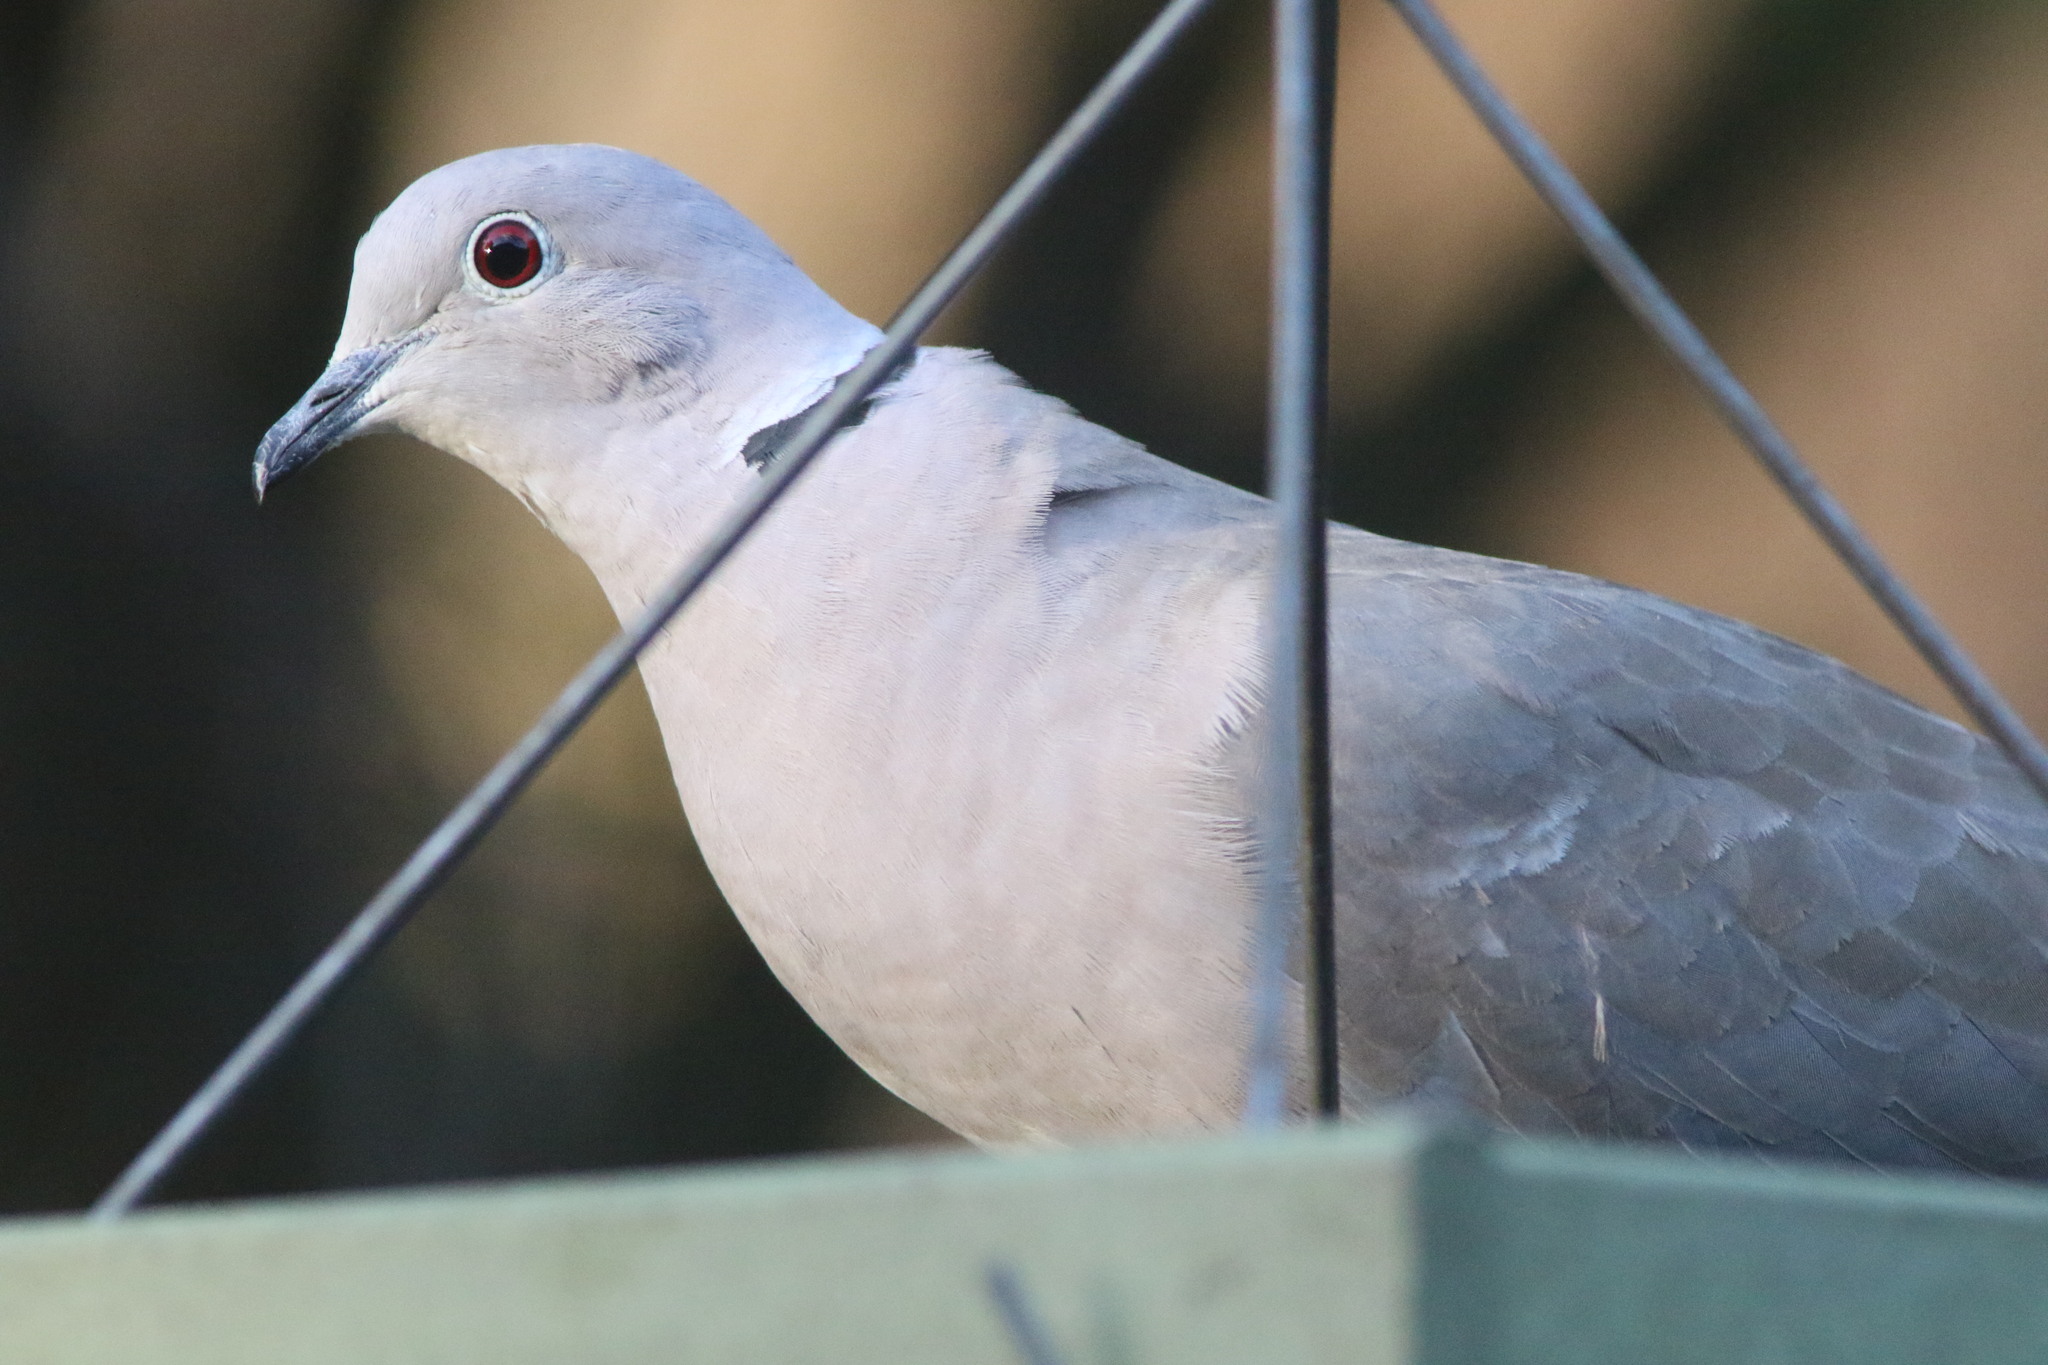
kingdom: Animalia
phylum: Chordata
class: Aves
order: Columbiformes
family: Columbidae
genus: Streptopelia
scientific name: Streptopelia decaocto
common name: Eurasian collared dove
